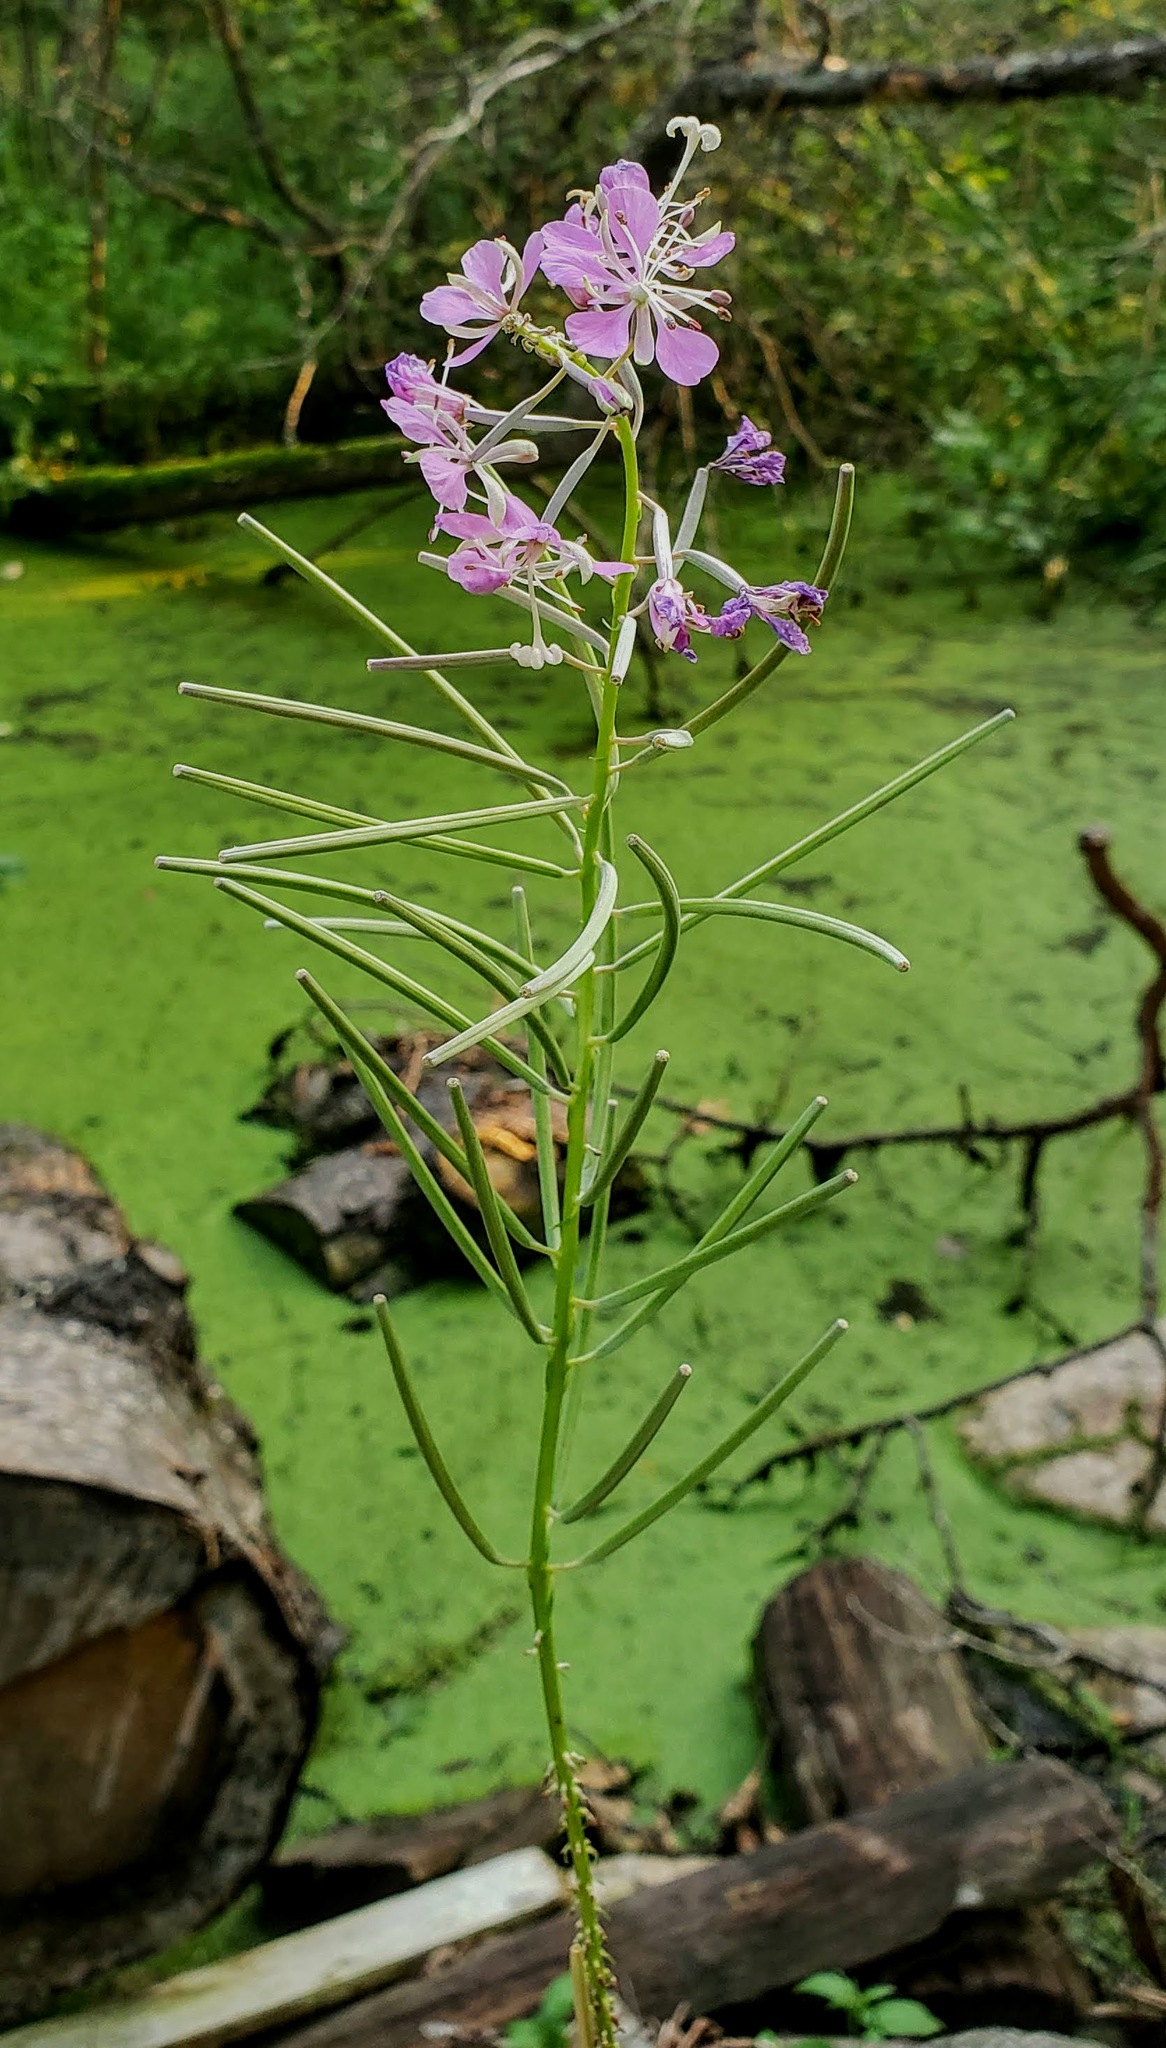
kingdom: Plantae
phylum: Tracheophyta
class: Magnoliopsida
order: Myrtales
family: Onagraceae
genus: Chamaenerion
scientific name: Chamaenerion angustifolium
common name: Fireweed
